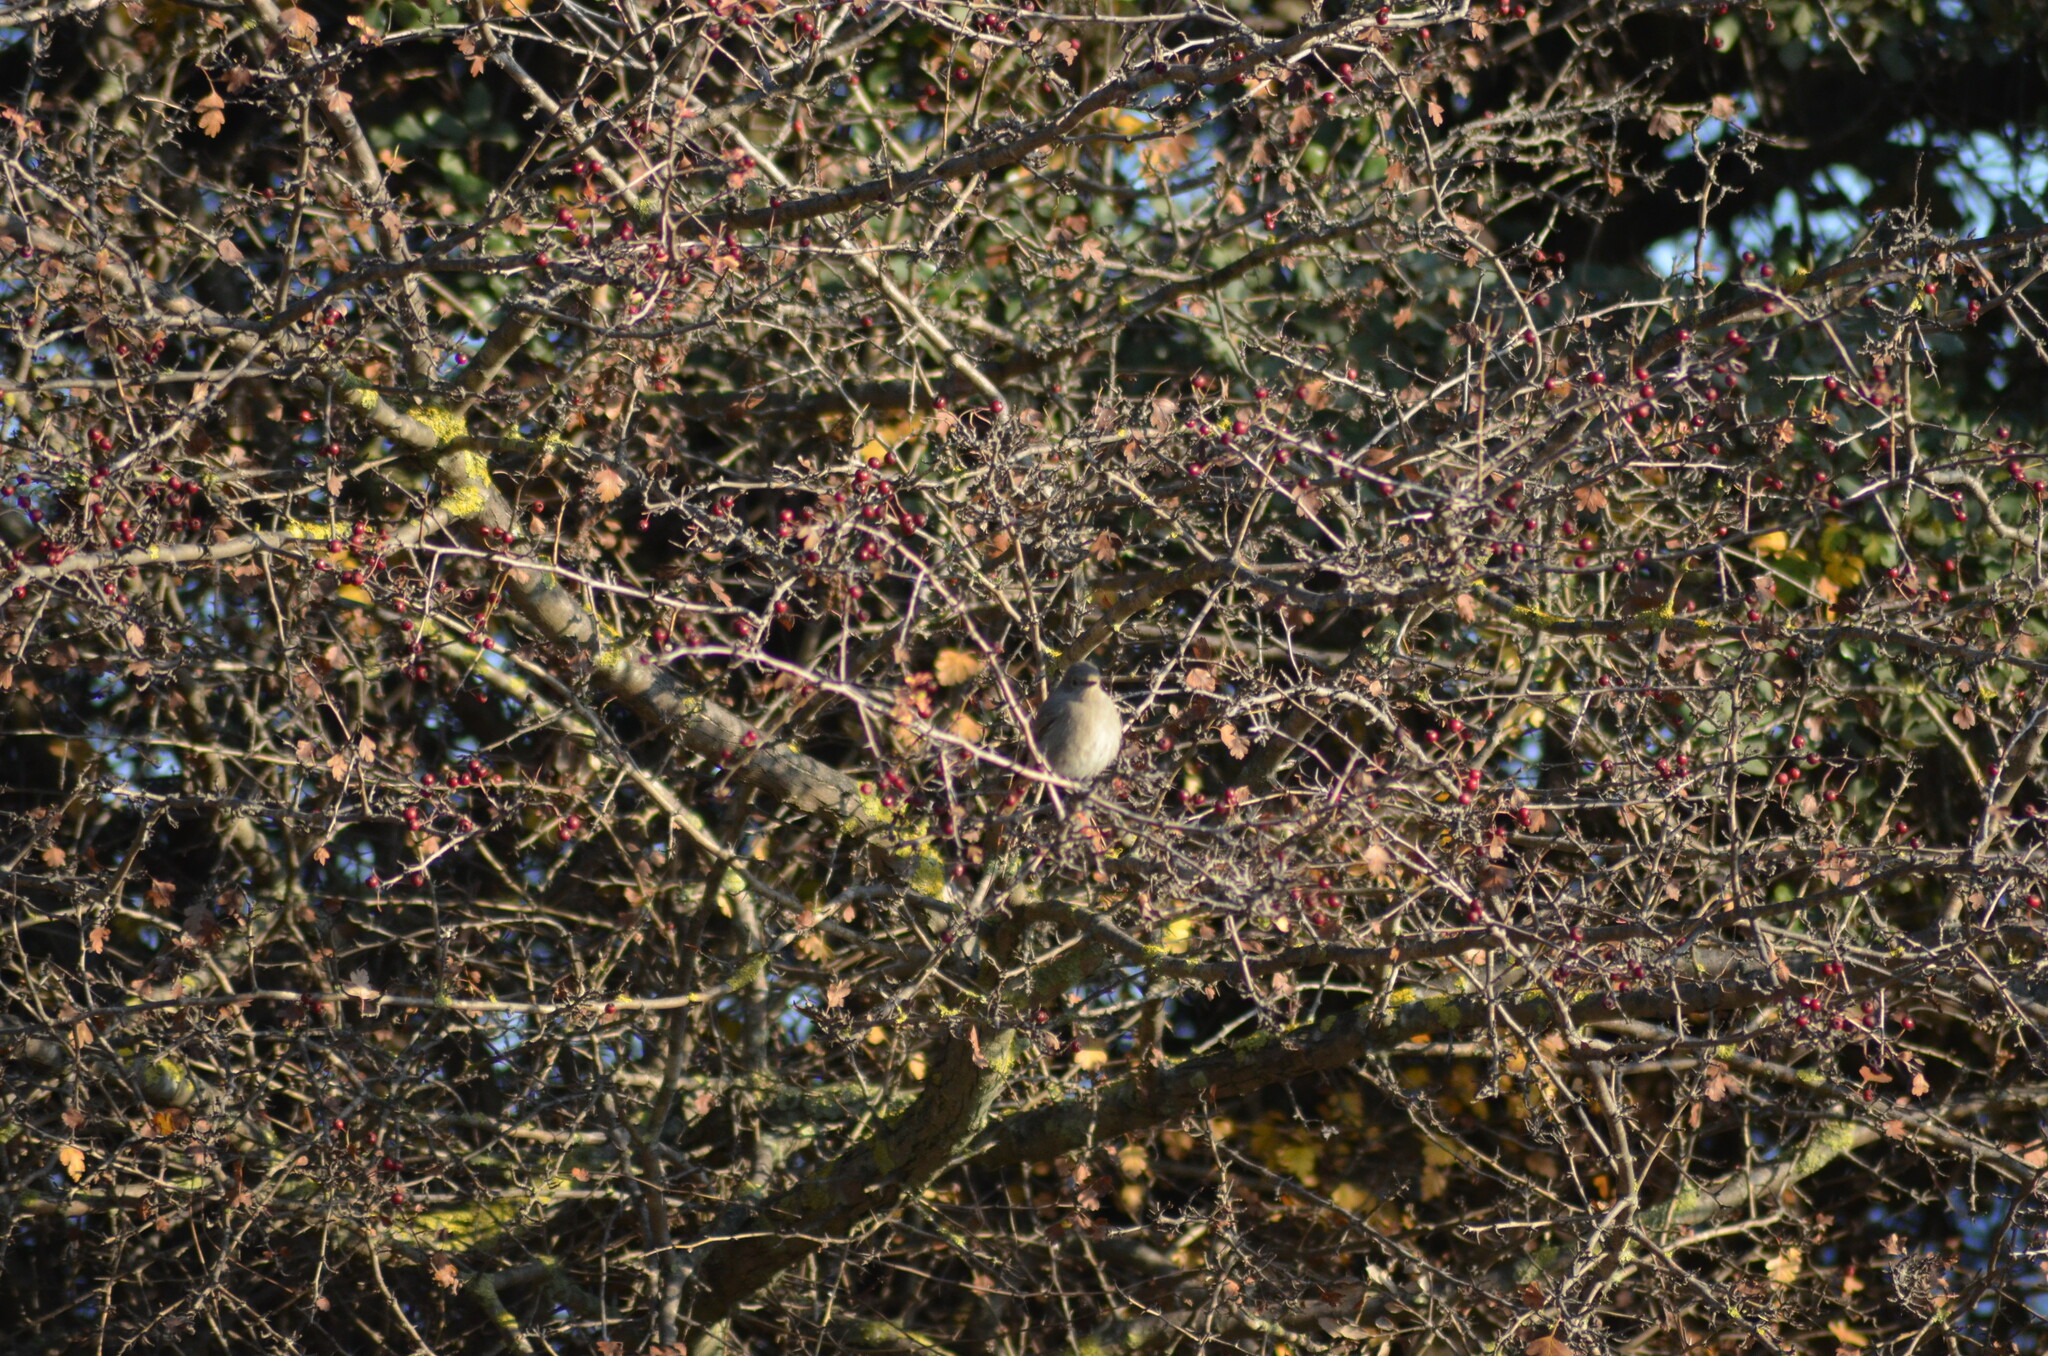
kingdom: Animalia
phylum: Chordata
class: Aves
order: Passeriformes
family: Muscicapidae
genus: Phoenicurus
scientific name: Phoenicurus ochruros
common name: Black redstart
